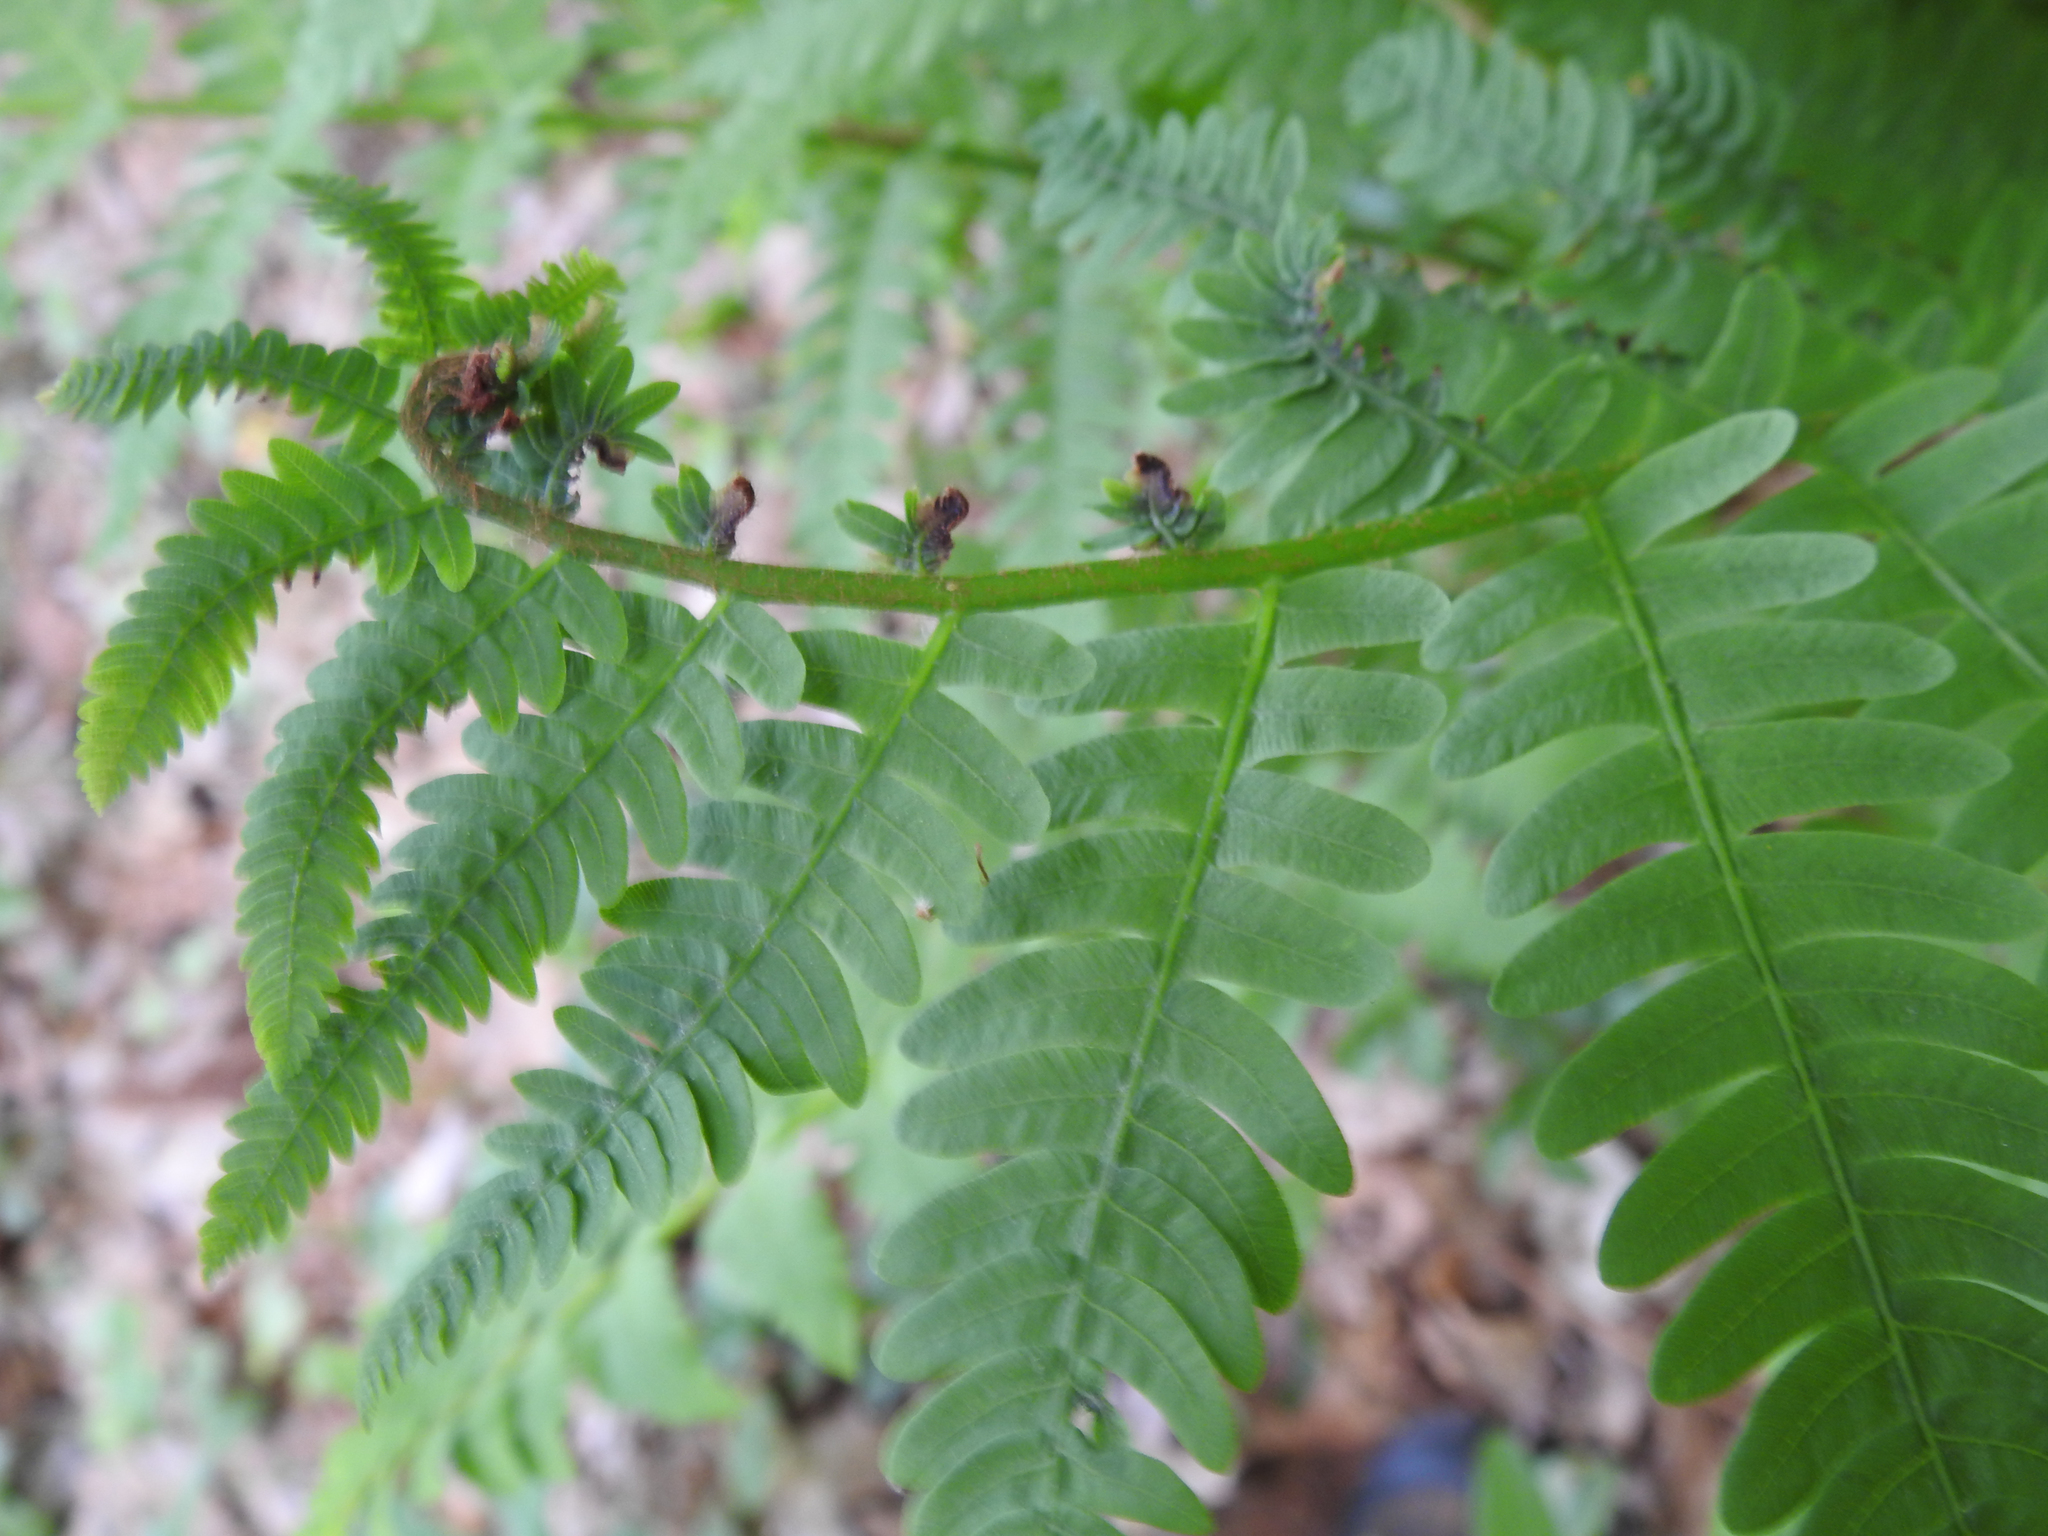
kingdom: Plantae
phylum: Tracheophyta
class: Polypodiopsida
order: Osmundales
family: Osmundaceae
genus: Claytosmunda
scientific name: Claytosmunda claytoniana
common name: Clayton's fern
